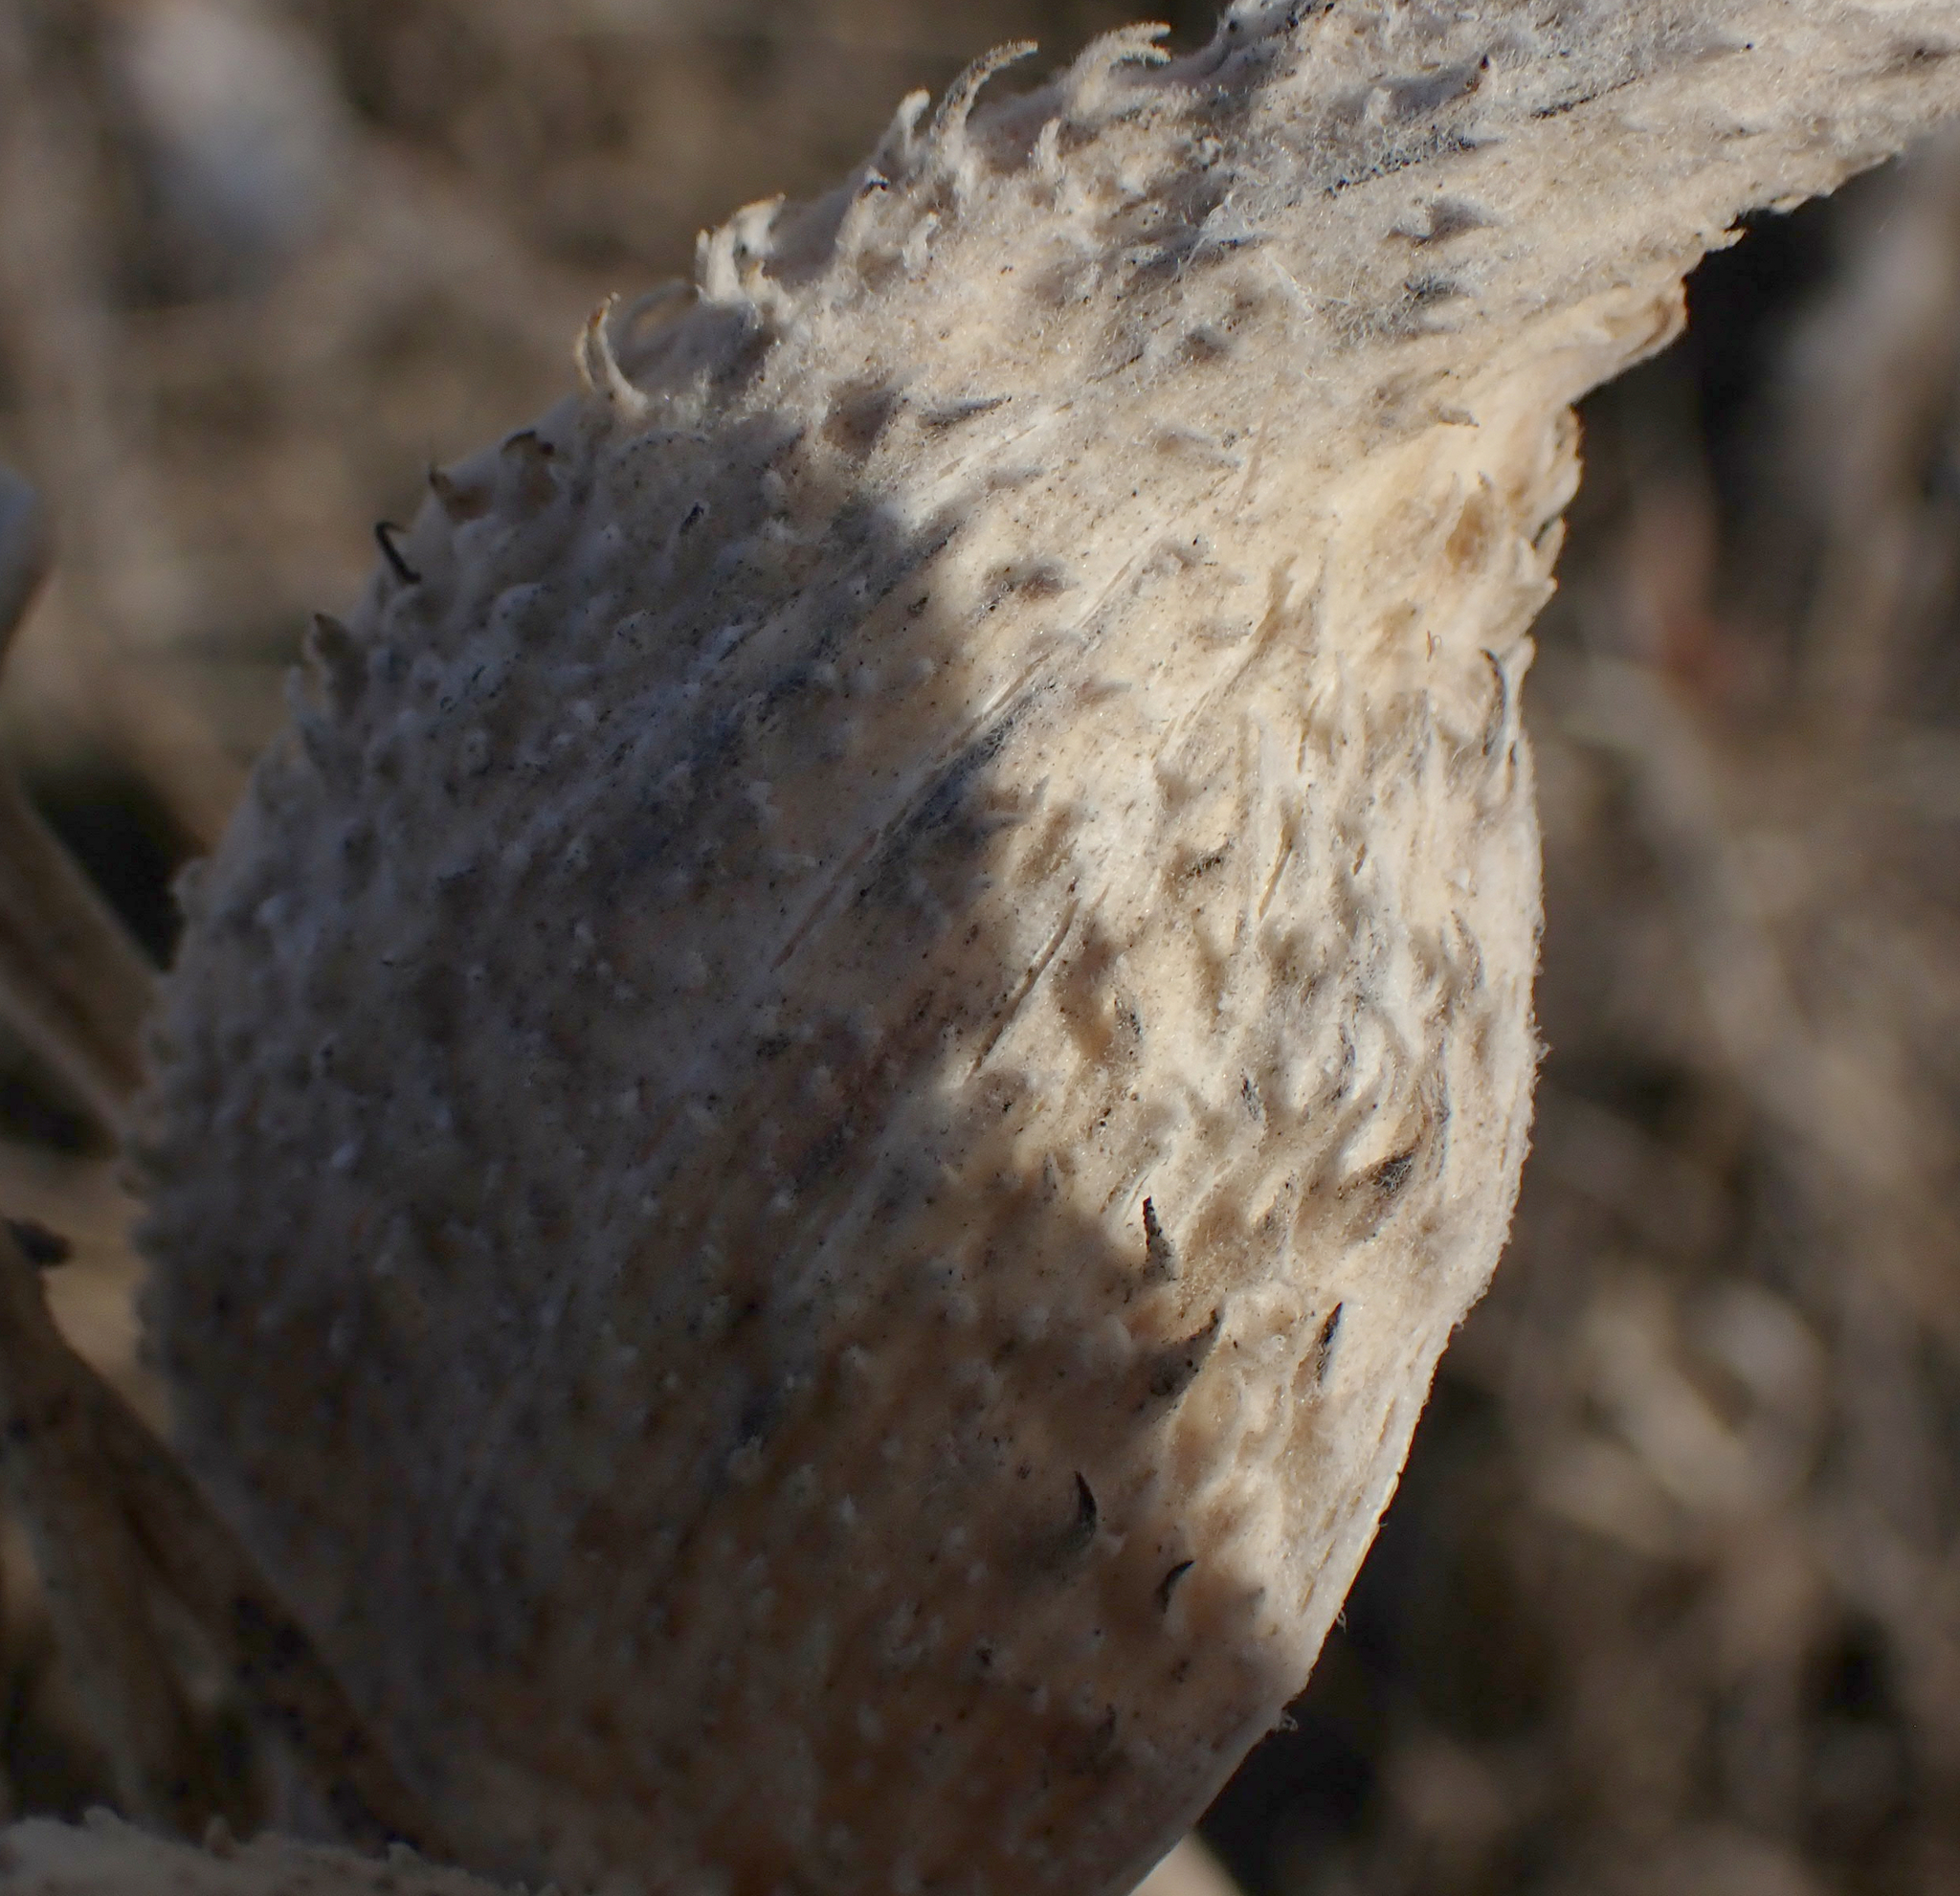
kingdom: Plantae
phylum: Tracheophyta
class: Magnoliopsida
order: Gentianales
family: Apocynaceae
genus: Asclepias
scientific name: Asclepias syriaca
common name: Common milkweed
